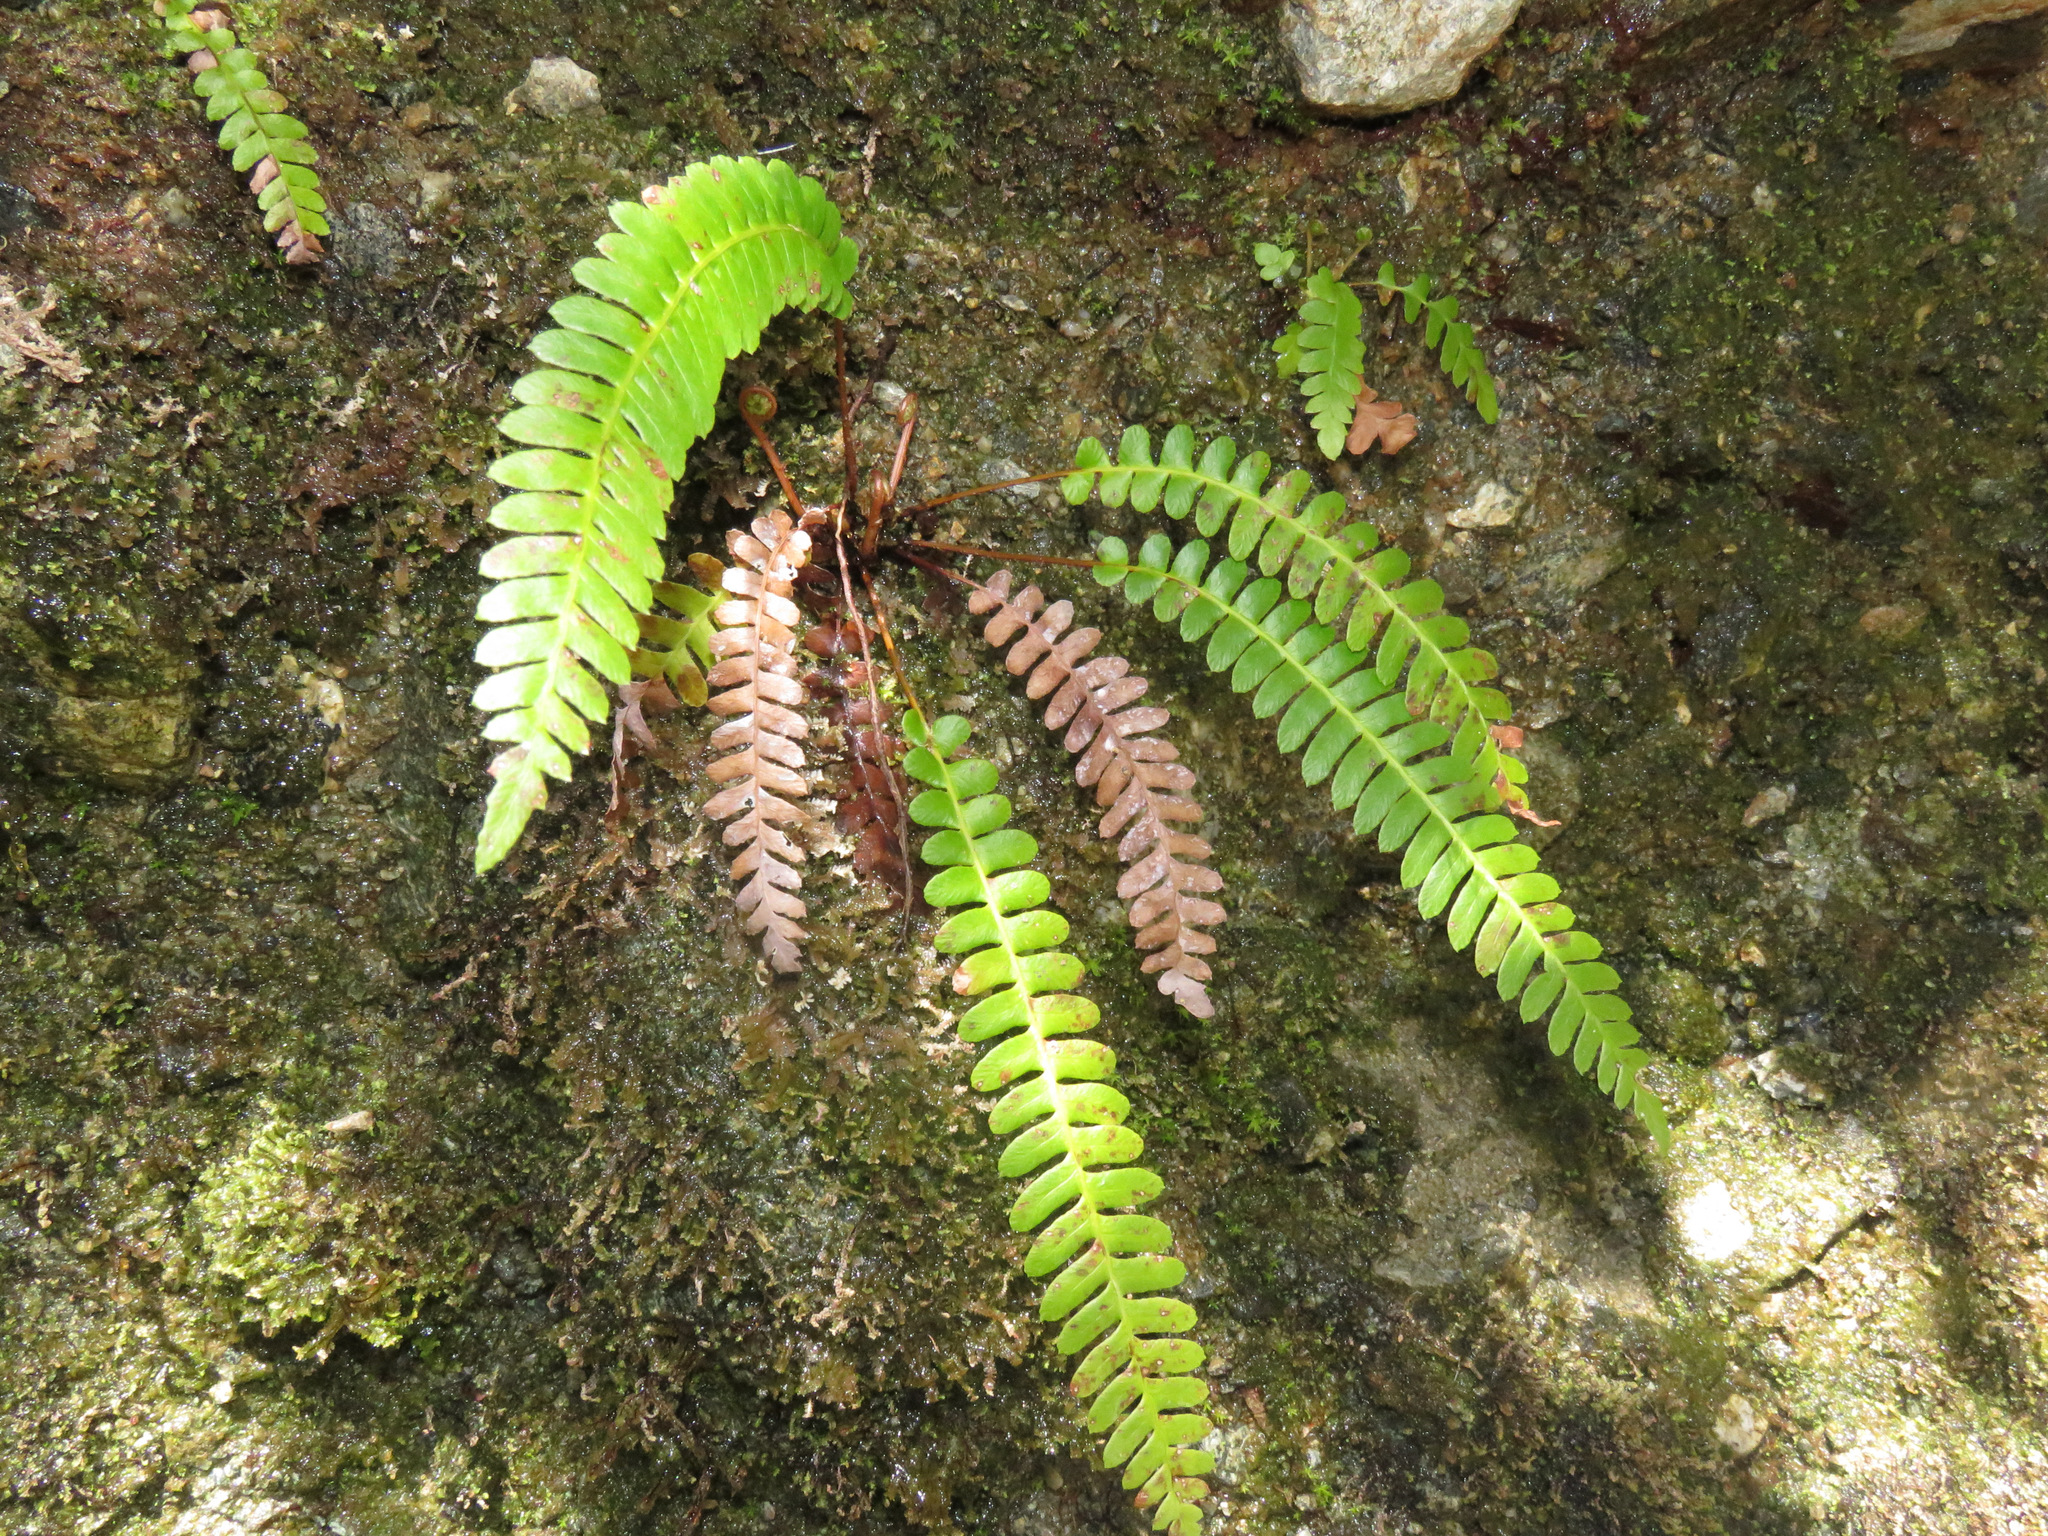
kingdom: Plantae
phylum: Tracheophyta
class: Polypodiopsida
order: Polypodiales
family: Blechnaceae
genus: Struthiopteris
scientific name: Struthiopteris spicant
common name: Deer fern
